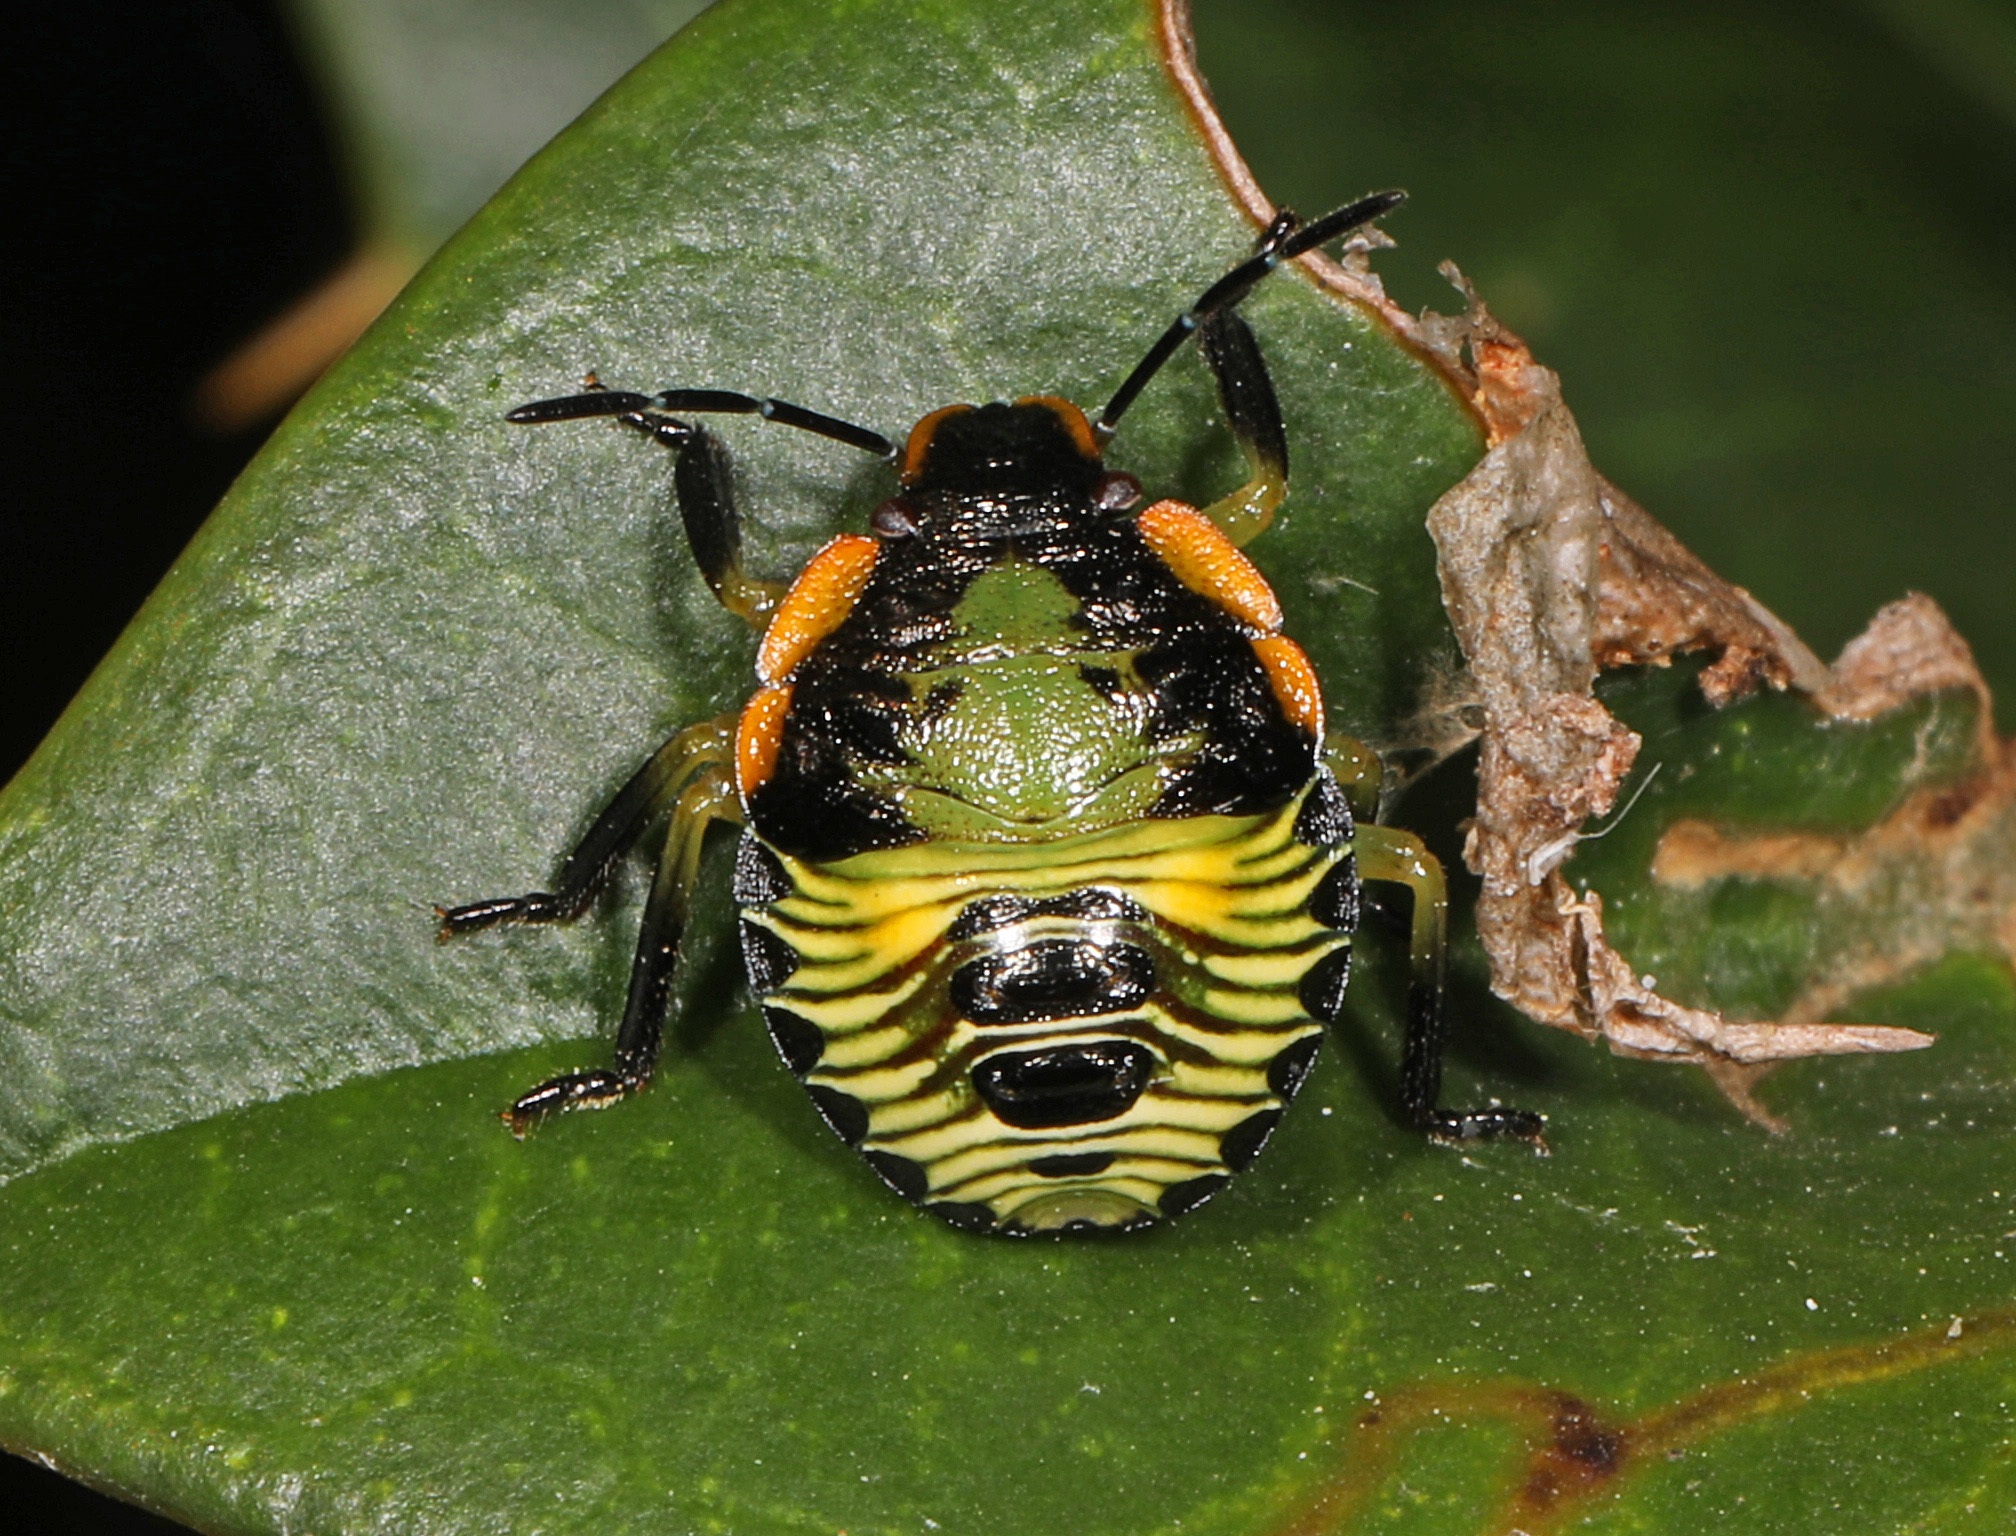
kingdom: Animalia
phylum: Arthropoda
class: Insecta
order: Hemiptera
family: Pentatomidae
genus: Chinavia
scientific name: Chinavia hilaris
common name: Green stink bug
